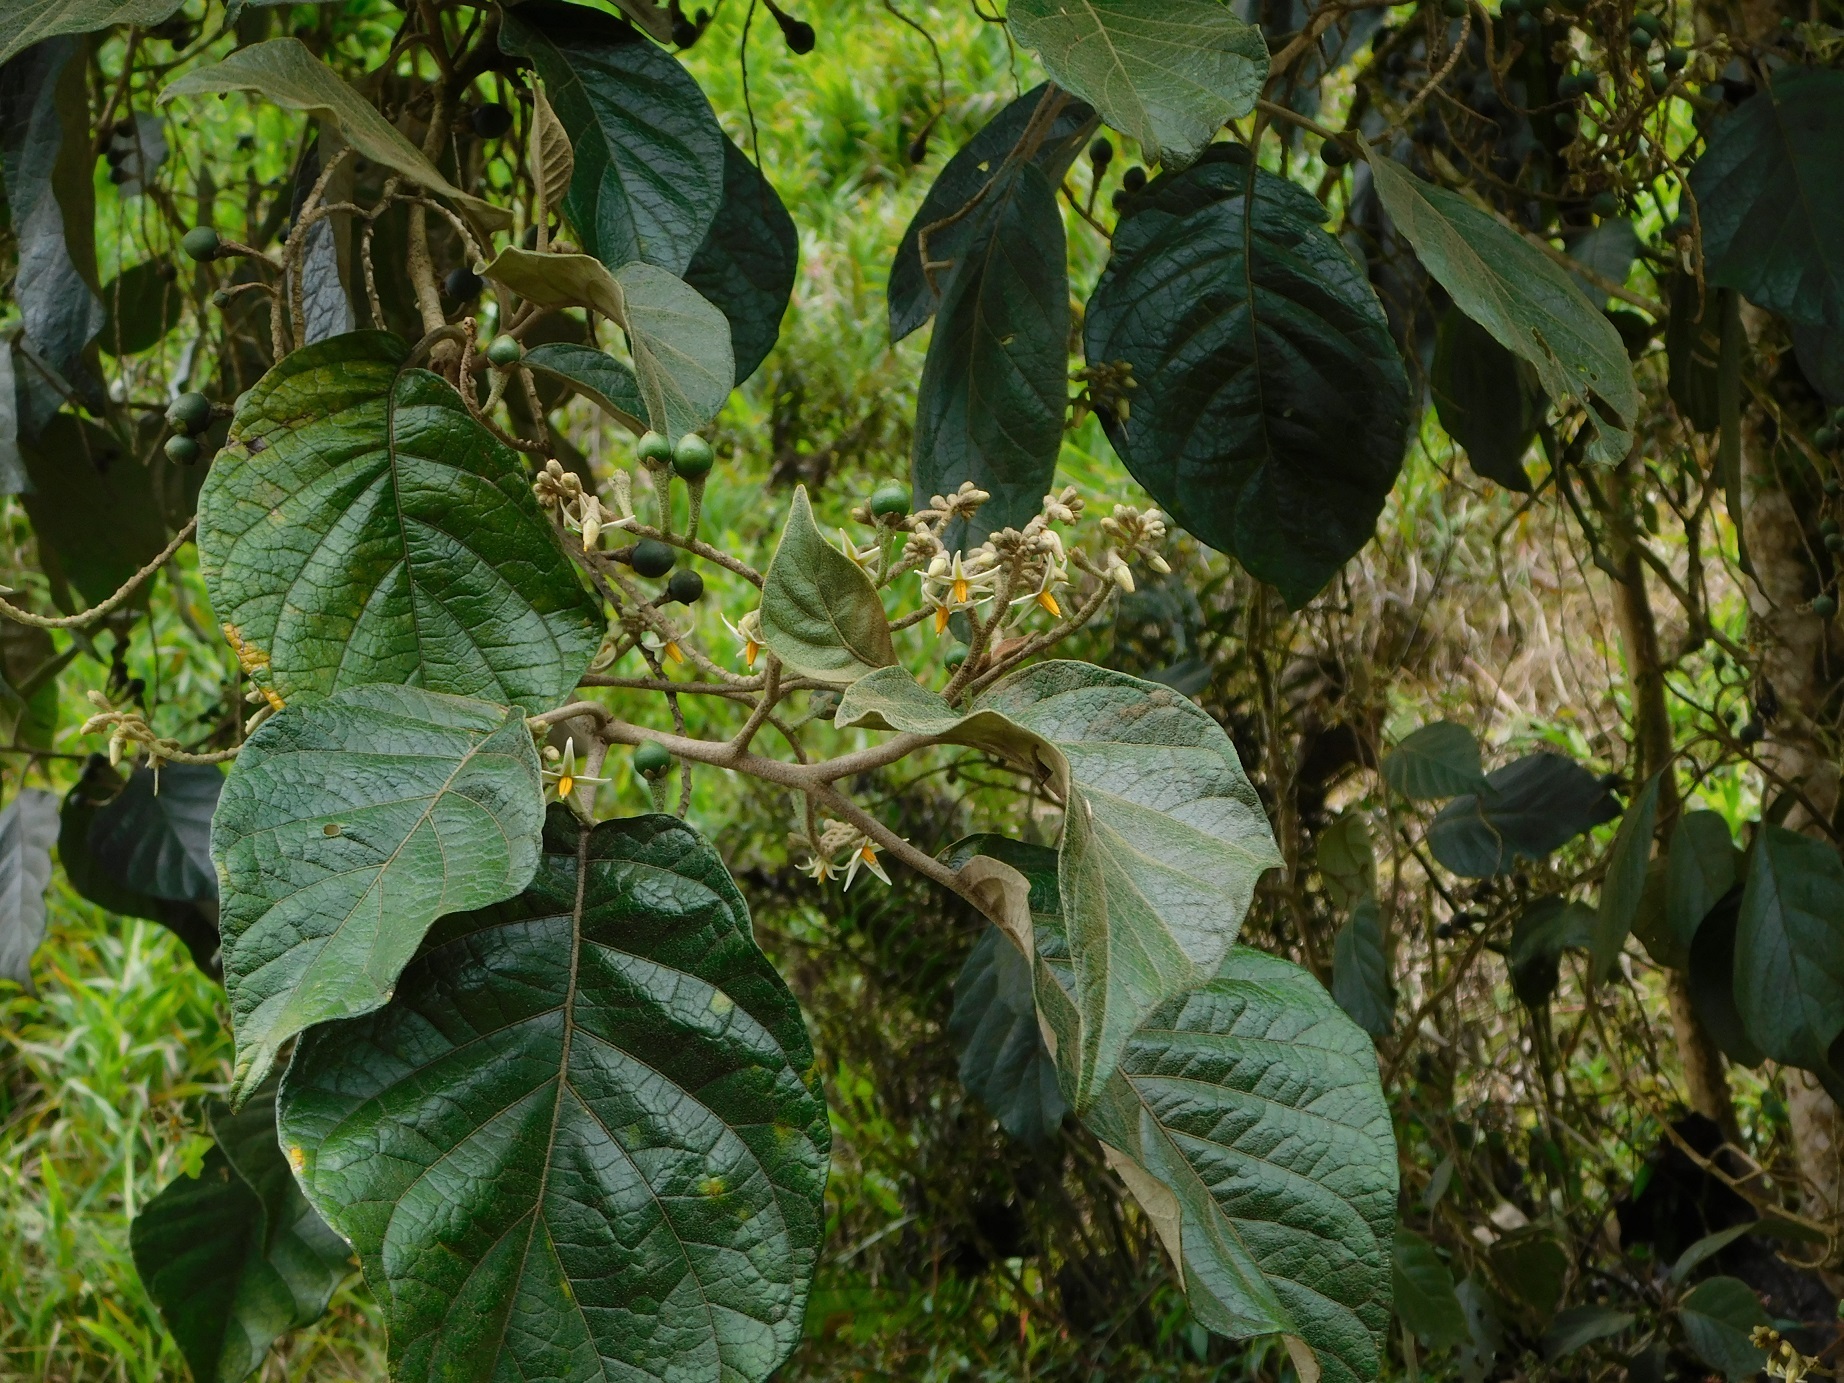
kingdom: Plantae
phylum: Tracheophyta
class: Magnoliopsida
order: Solanales
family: Solanaceae
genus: Solanum
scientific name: Solanum asperolanatum
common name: Devil's-fig
